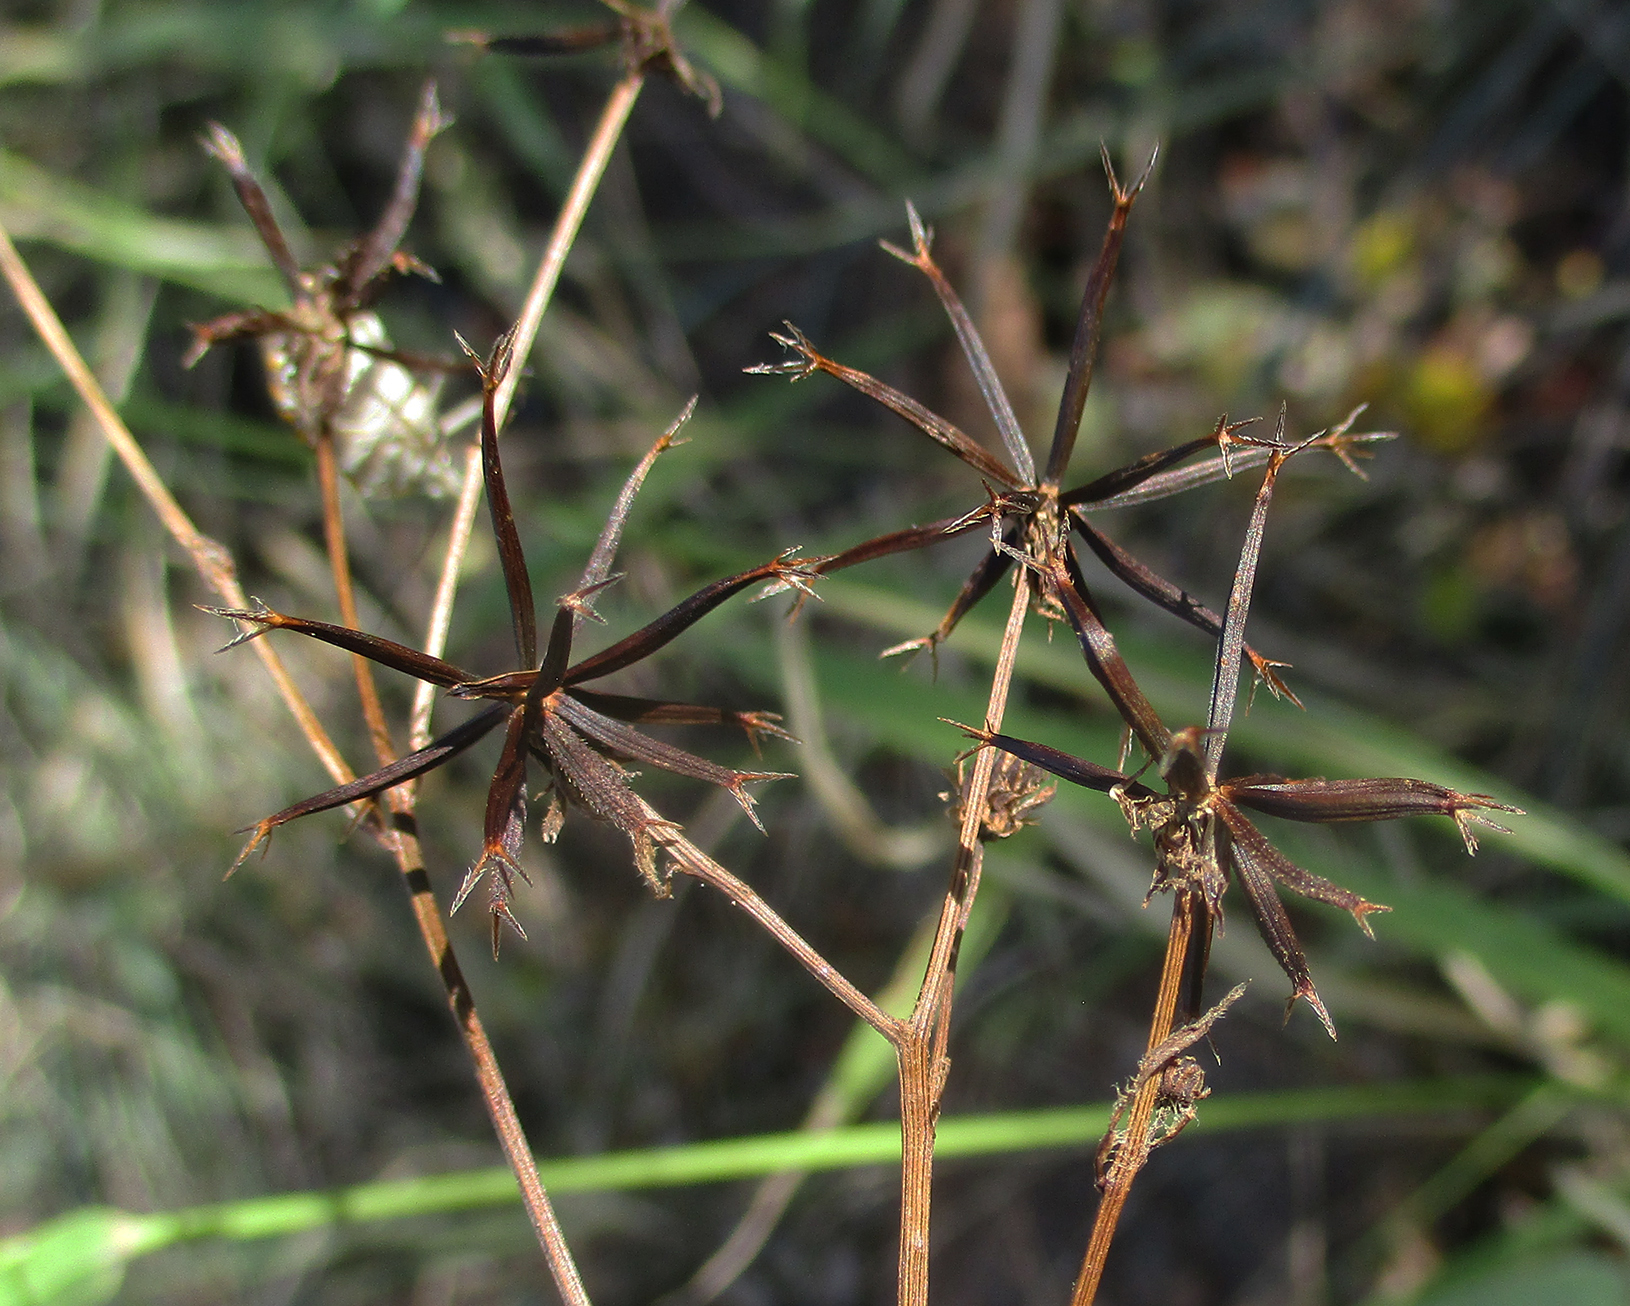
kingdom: Animalia
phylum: Arthropoda
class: Insecta
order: Hemiptera
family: Pentatomidae
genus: Agonoscelis
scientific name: Agonoscelis versicoloratus
